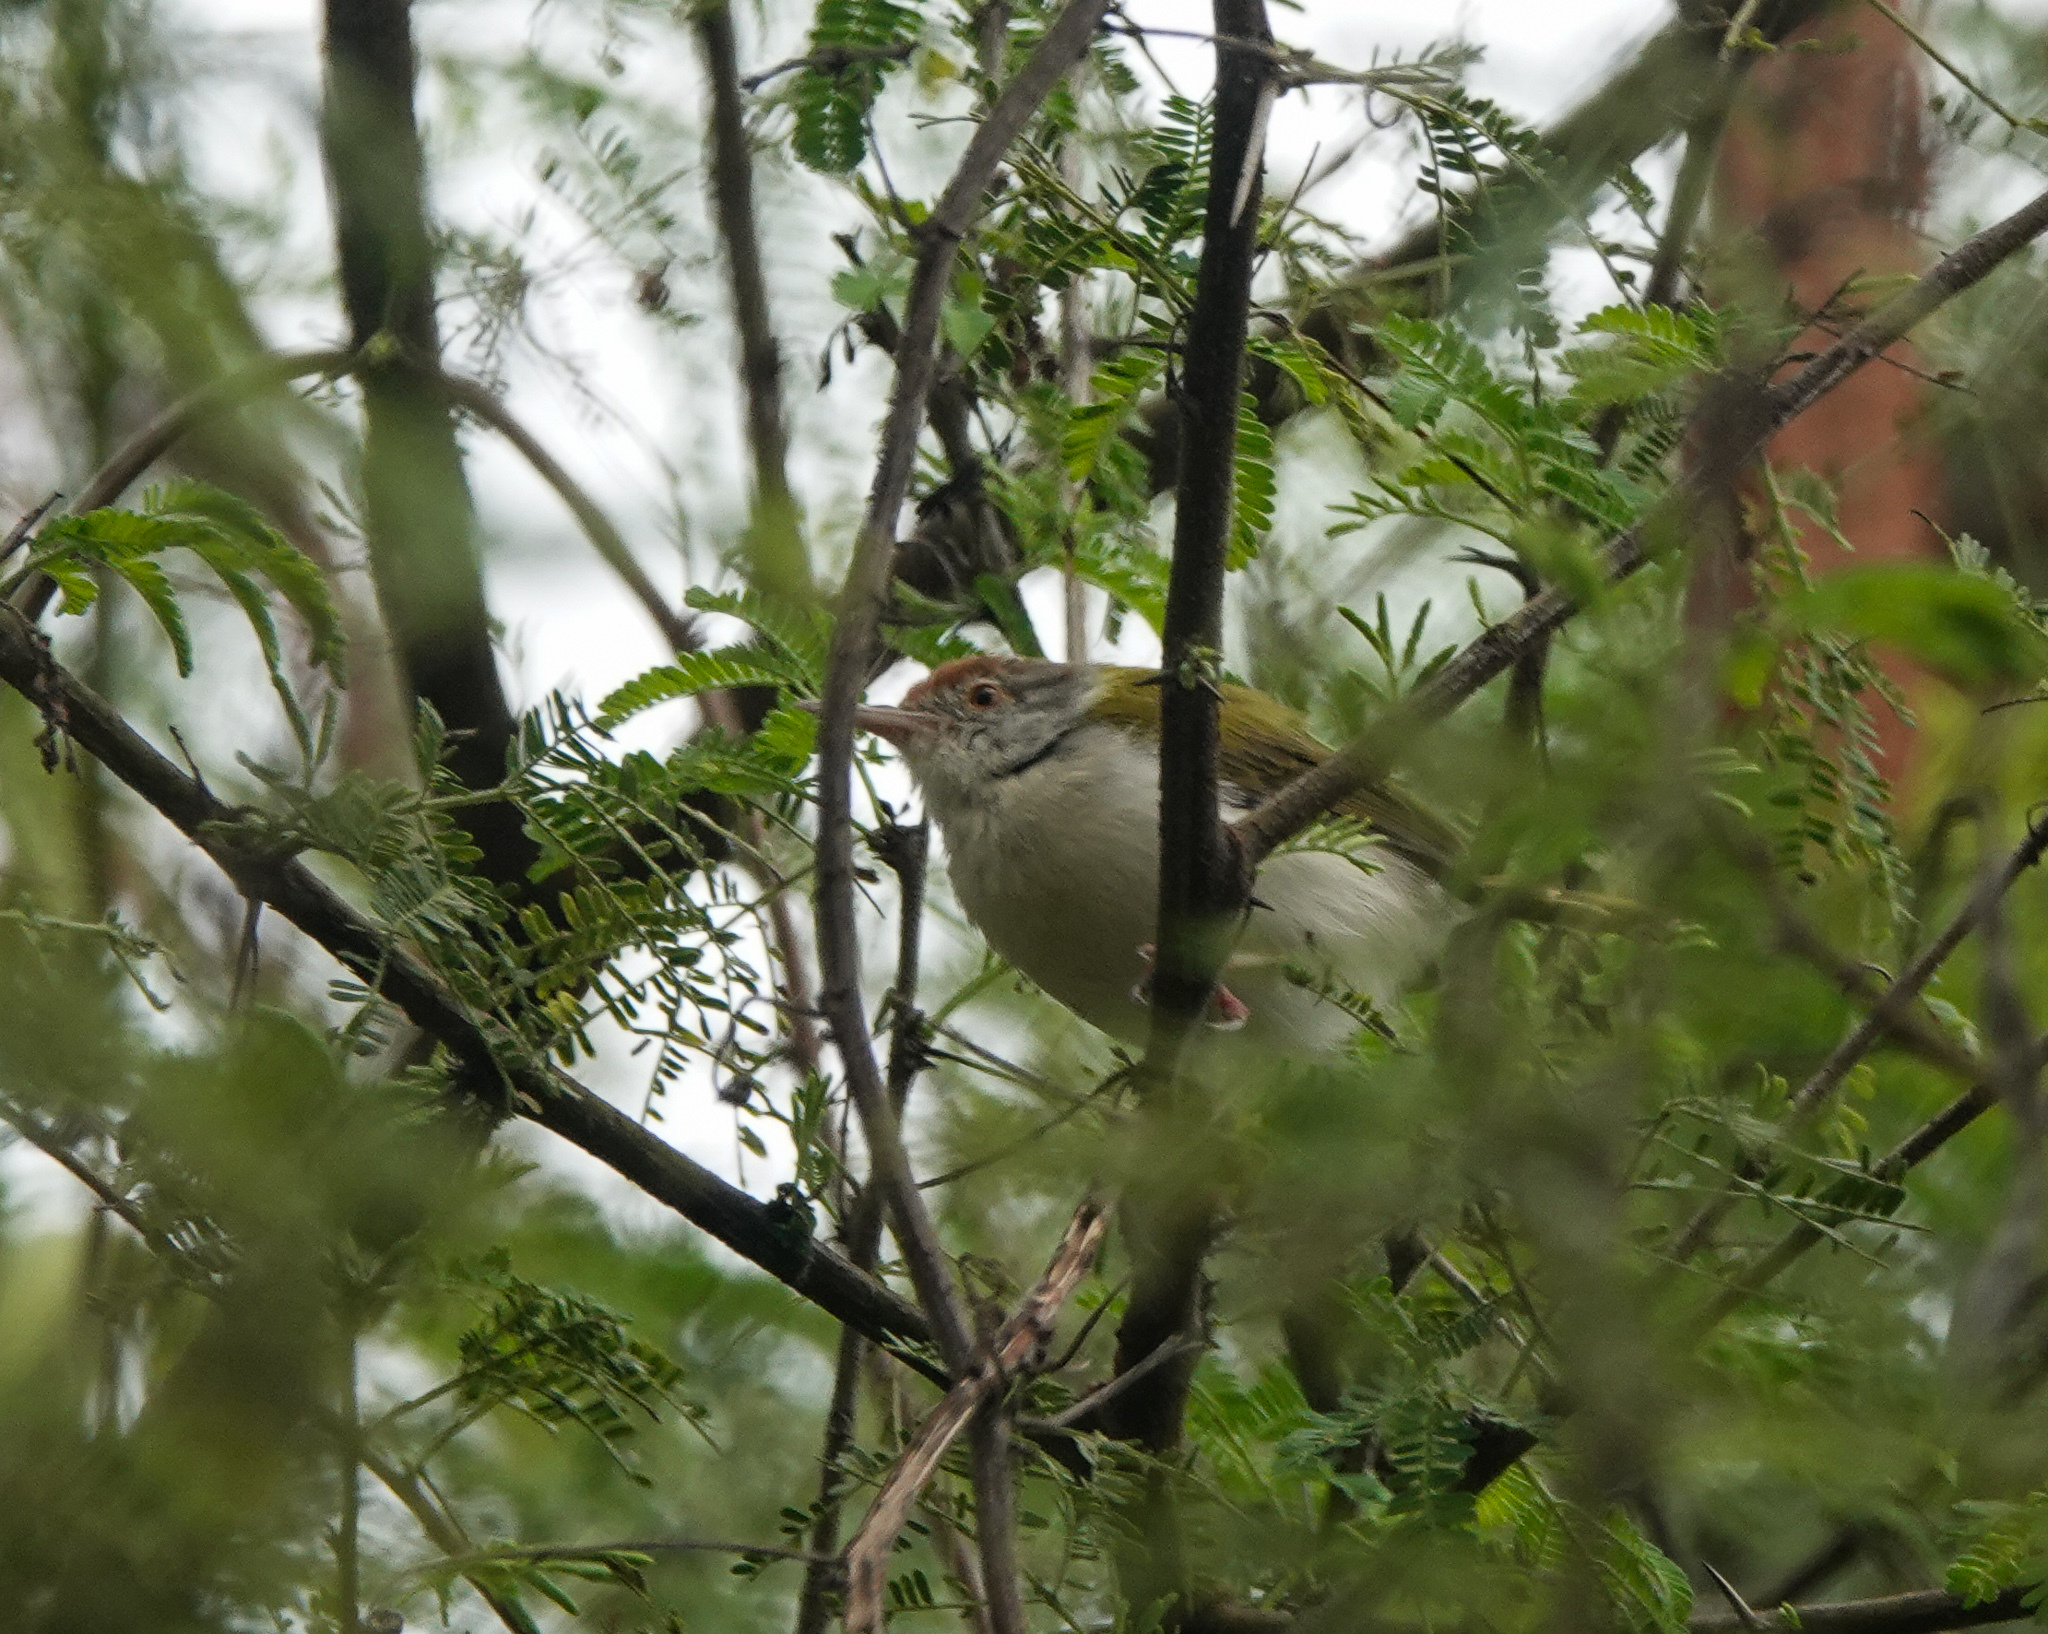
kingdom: Animalia
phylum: Chordata
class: Aves
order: Passeriformes
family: Cisticolidae
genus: Orthotomus
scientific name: Orthotomus sutorius
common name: Common tailorbird
